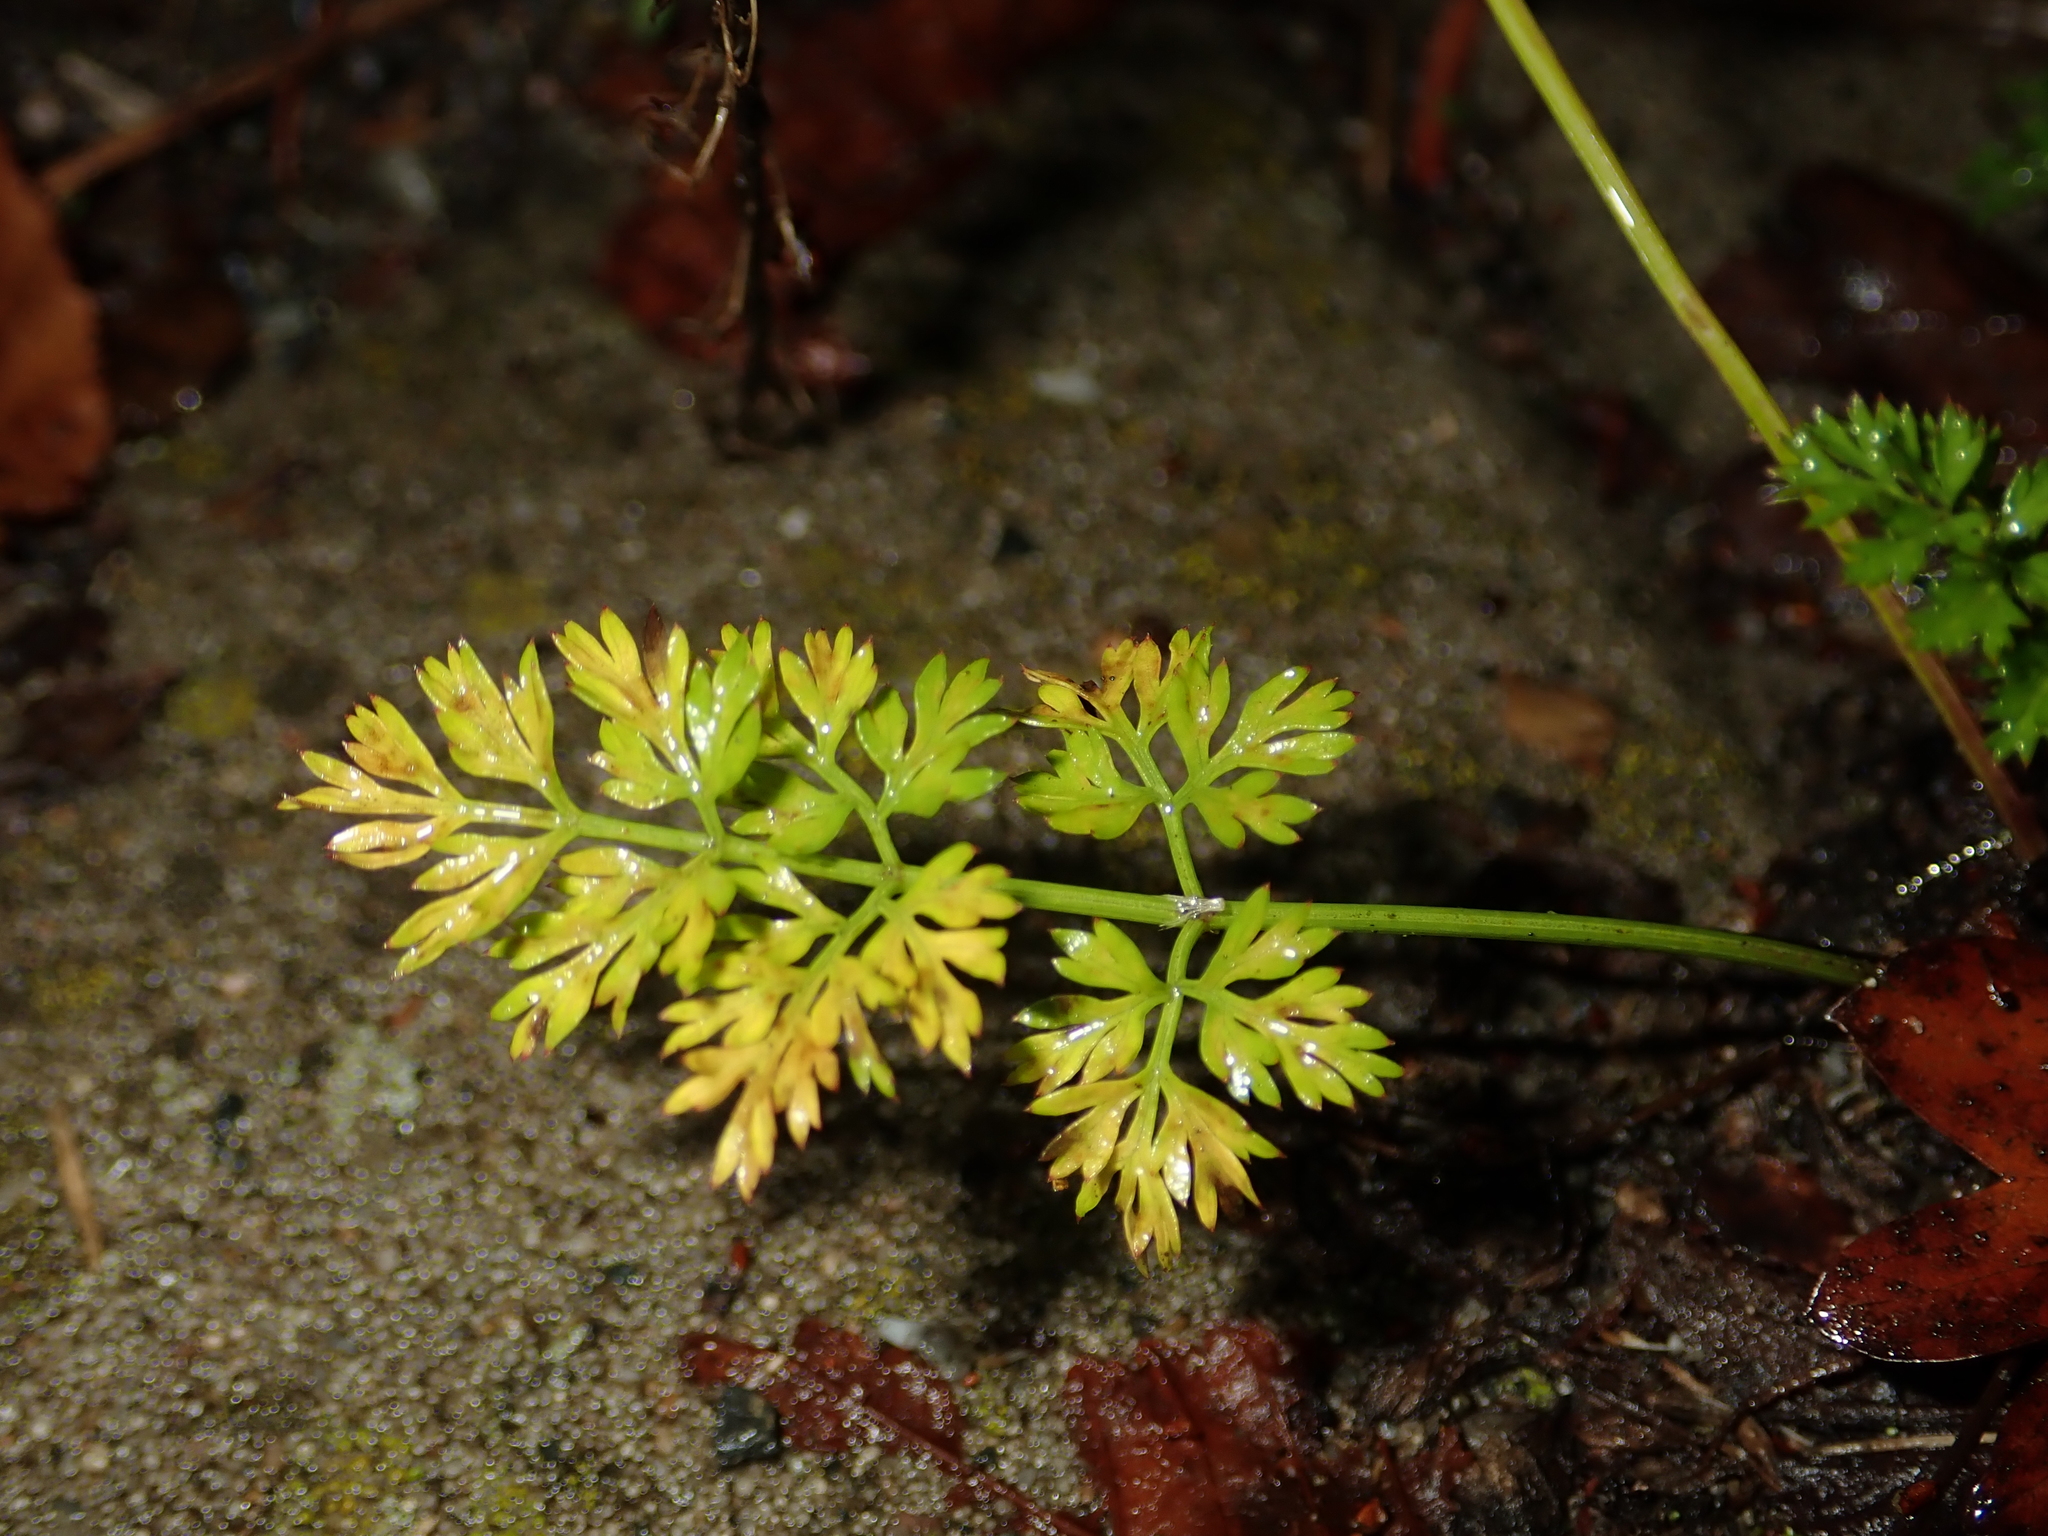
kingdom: Plantae
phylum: Tracheophyta
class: Magnoliopsida
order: Apiales
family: Apiaceae
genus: Daucus
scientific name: Daucus carota
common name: Wild carrot
